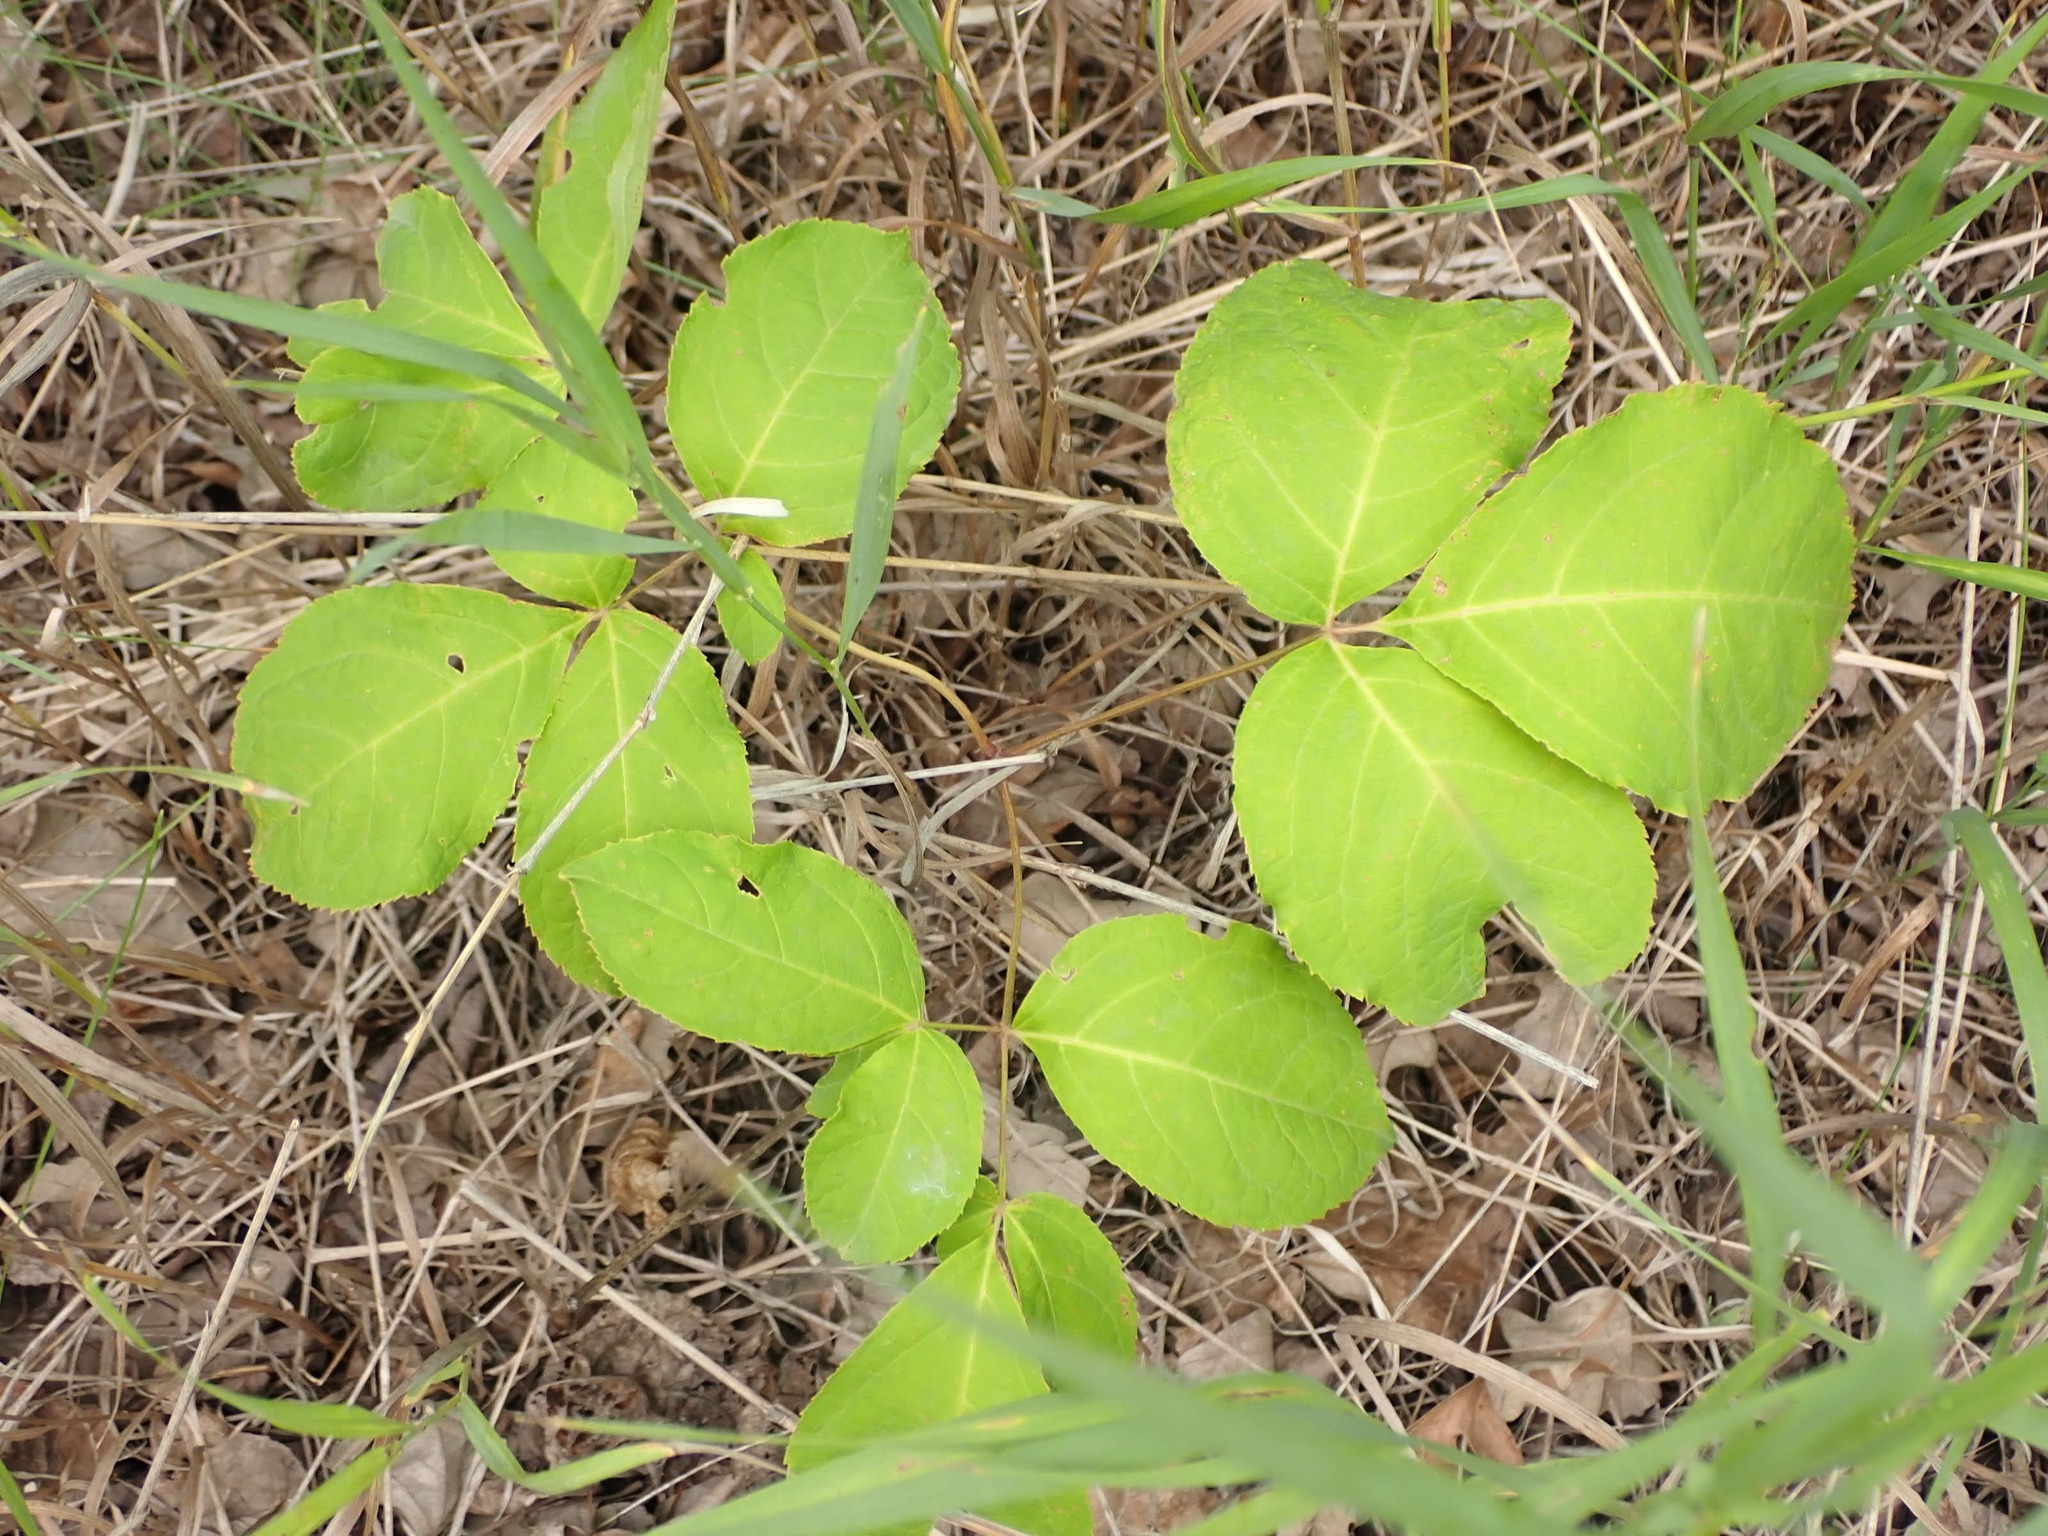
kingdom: Plantae
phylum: Tracheophyta
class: Magnoliopsida
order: Apiales
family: Araliaceae
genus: Aralia
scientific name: Aralia nudicaulis
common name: Wild sarsaparilla
